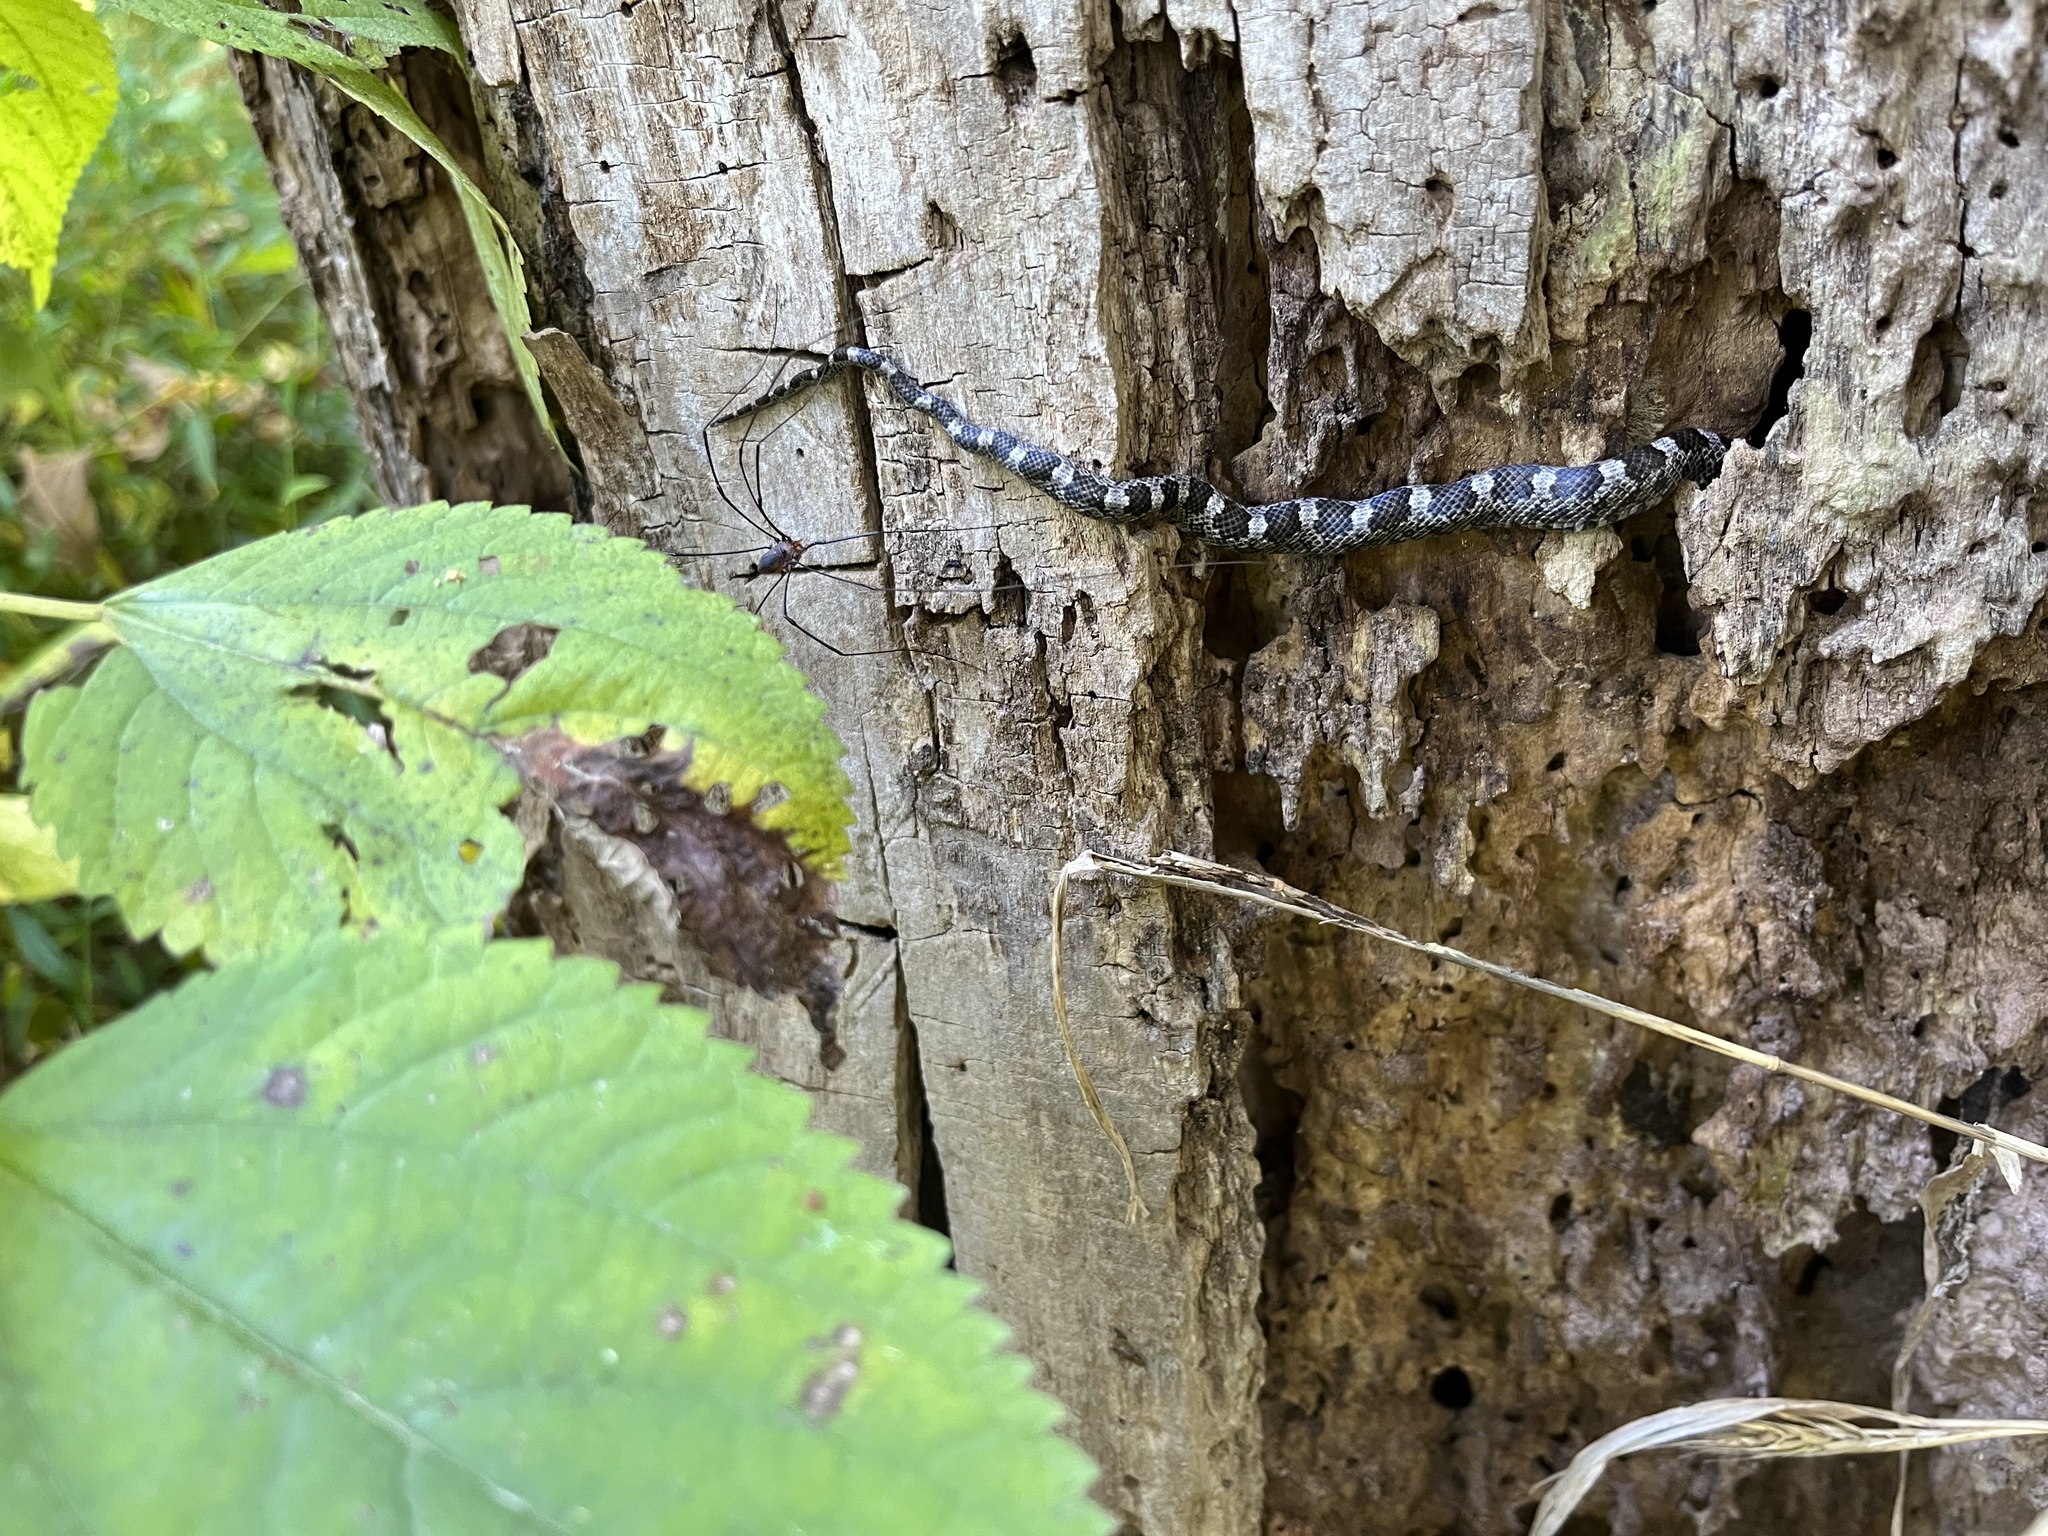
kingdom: Animalia
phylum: Chordata
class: Squamata
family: Colubridae
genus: Pantherophis
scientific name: Pantherophis alleghaniensis
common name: Eastern rat snake
